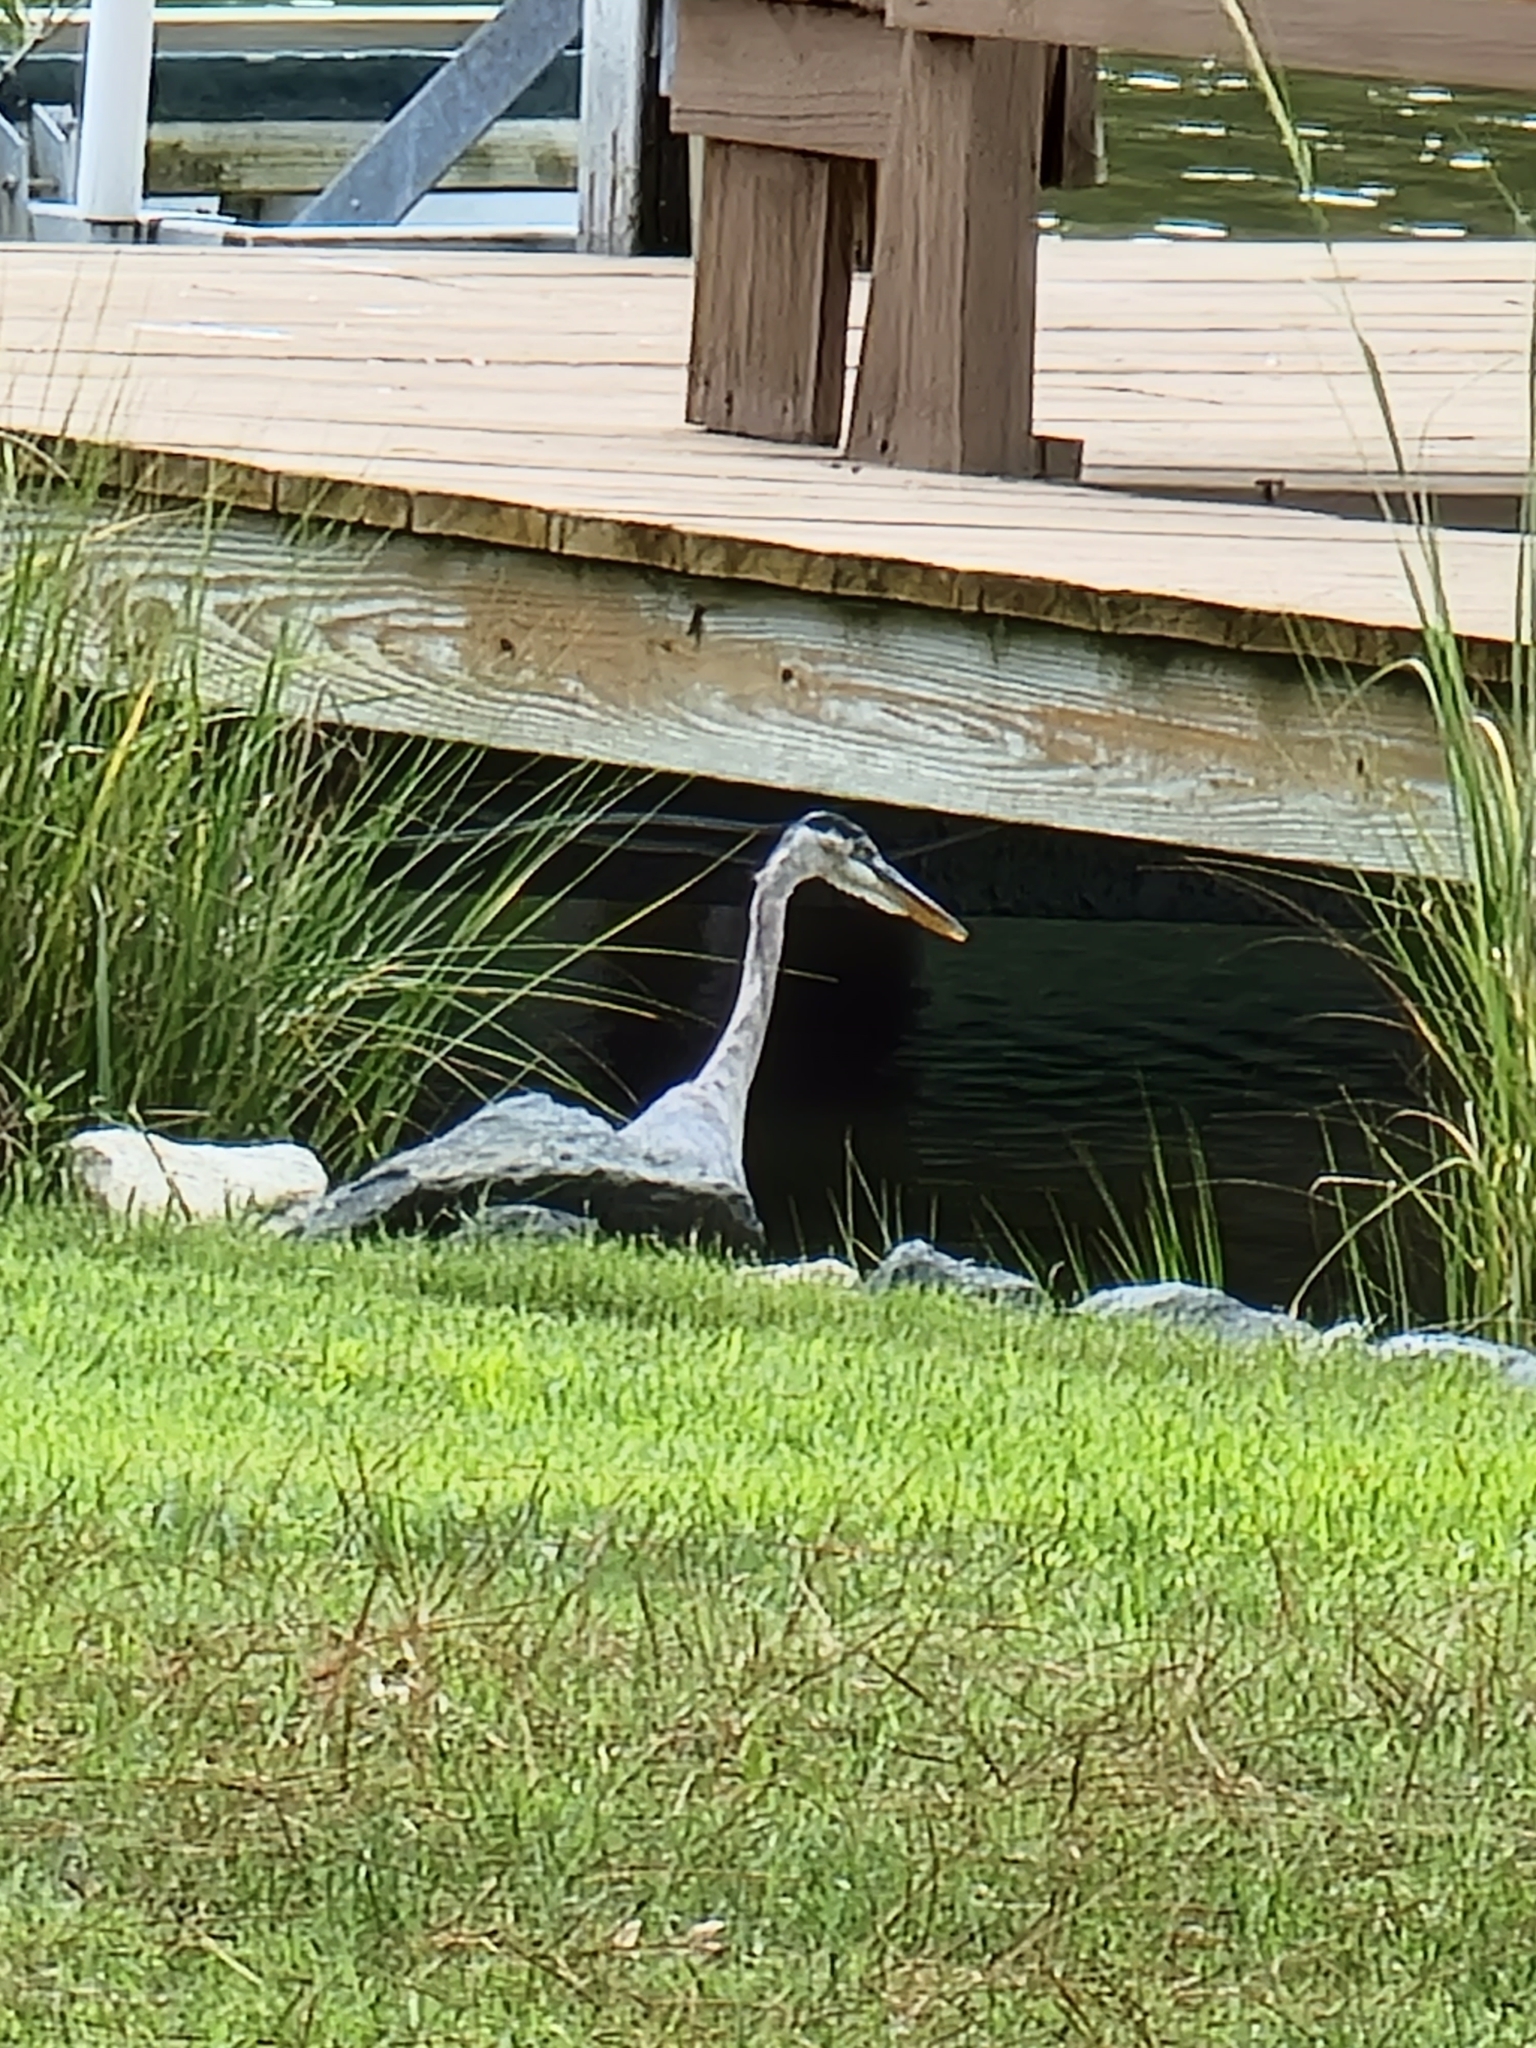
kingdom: Animalia
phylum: Chordata
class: Aves
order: Pelecaniformes
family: Ardeidae
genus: Ardea
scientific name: Ardea herodias
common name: Great blue heron
